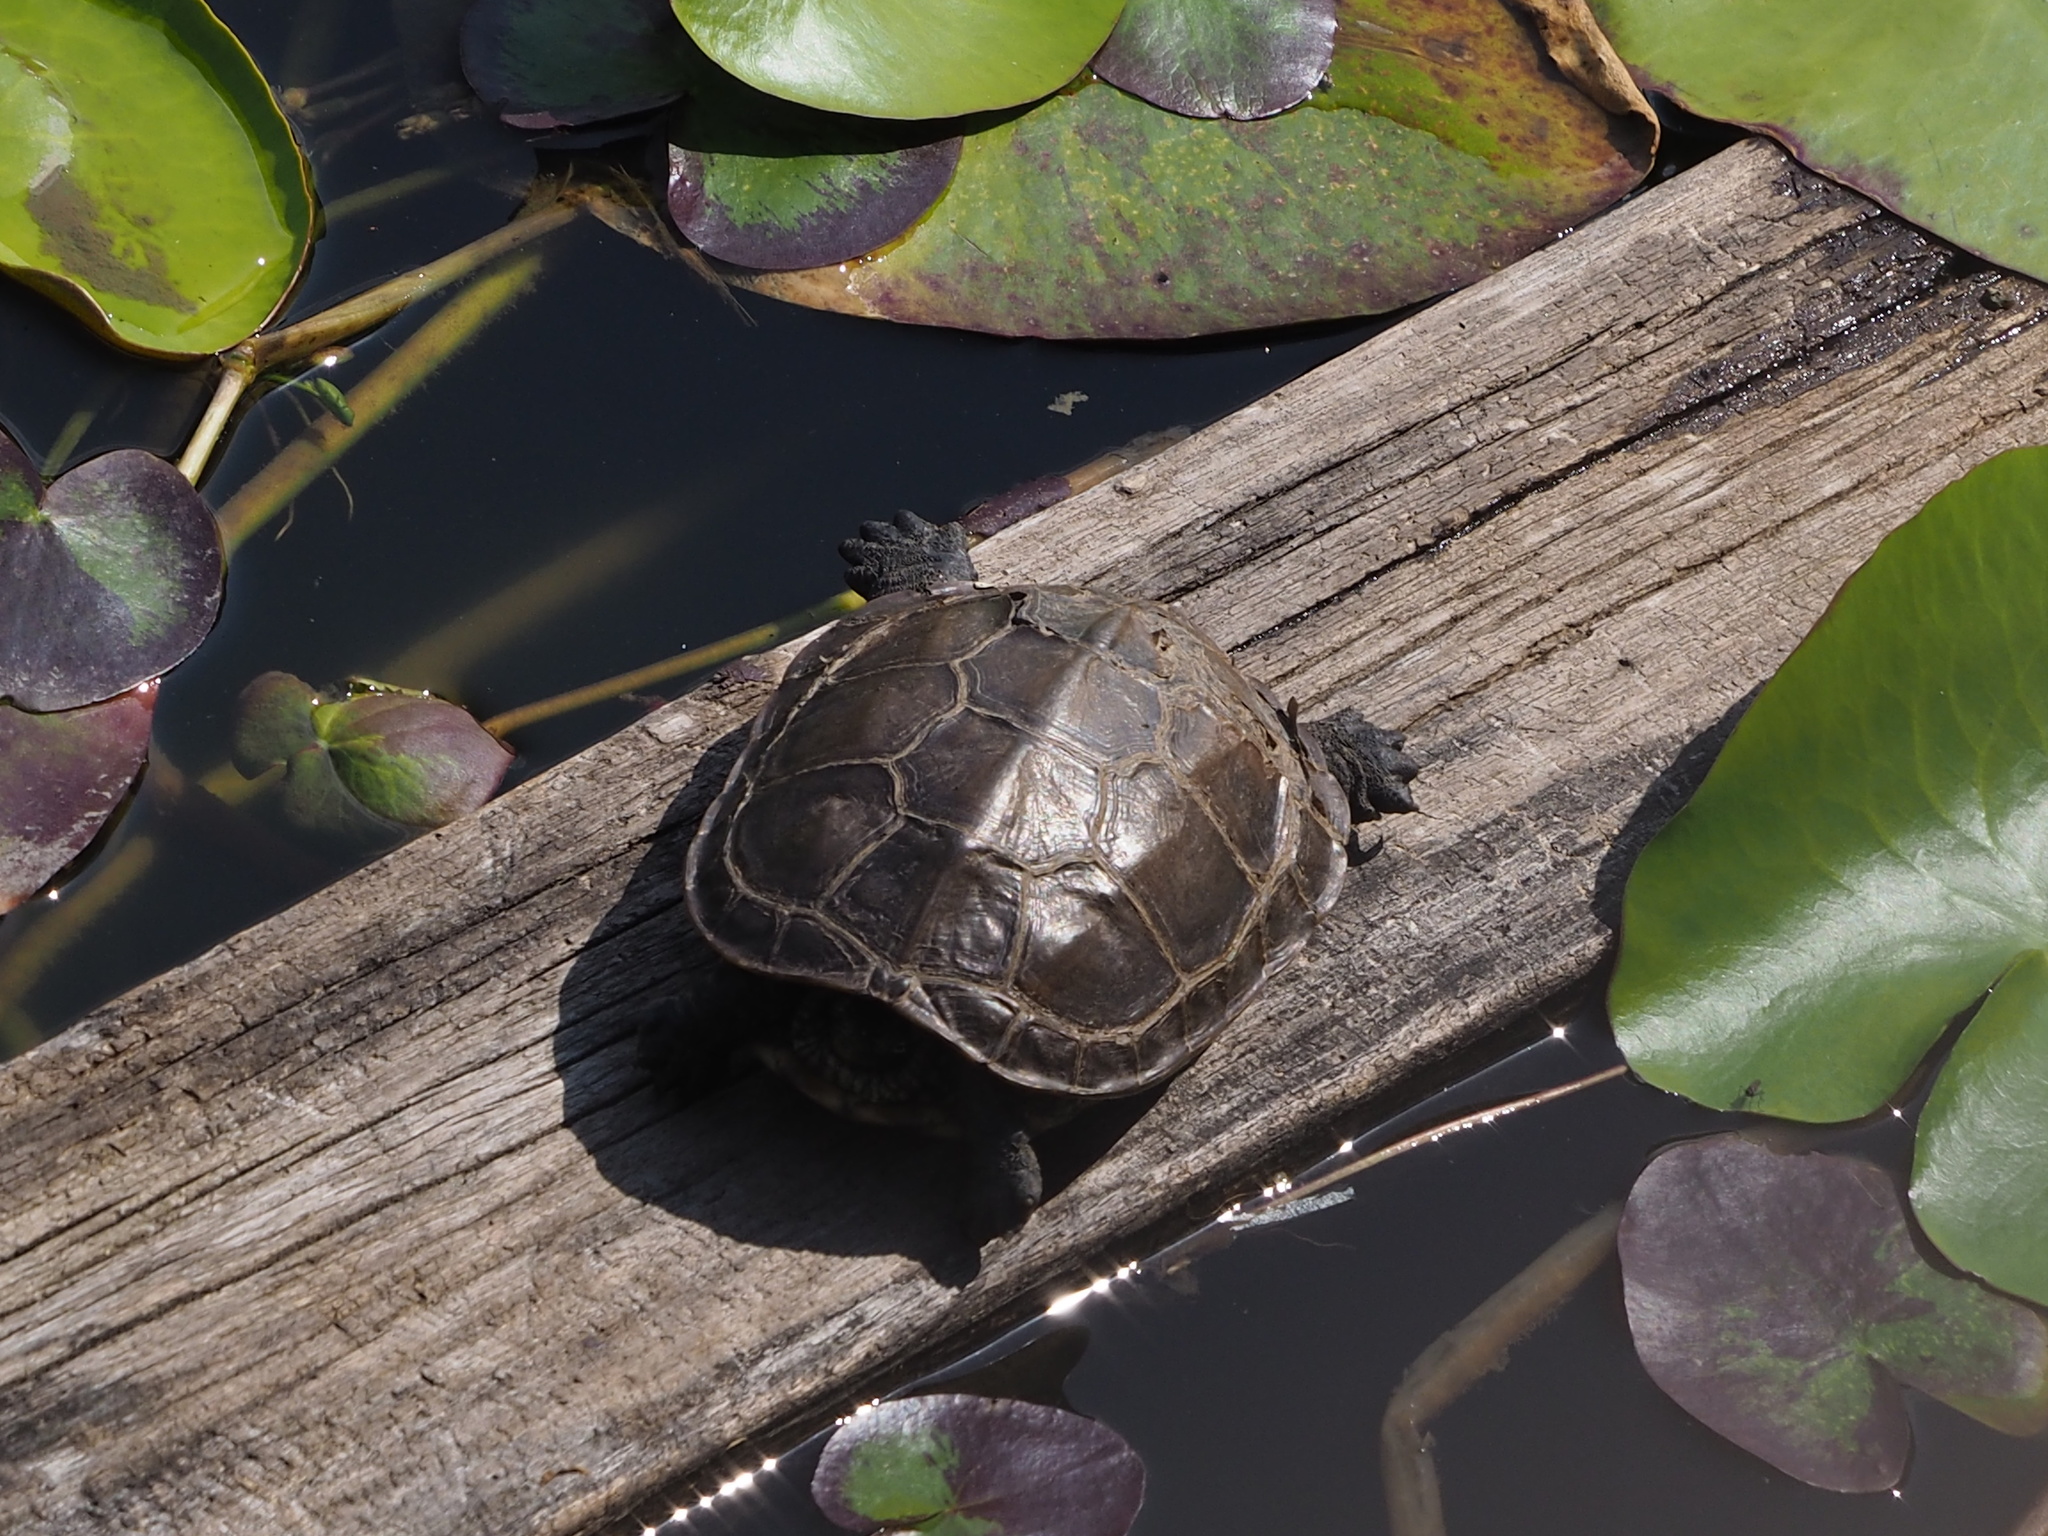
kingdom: Animalia
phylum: Chordata
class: Testudines
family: Geoemydidae
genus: Mauremys
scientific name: Mauremys sinensis
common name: Chinese stripe-necked turtle
